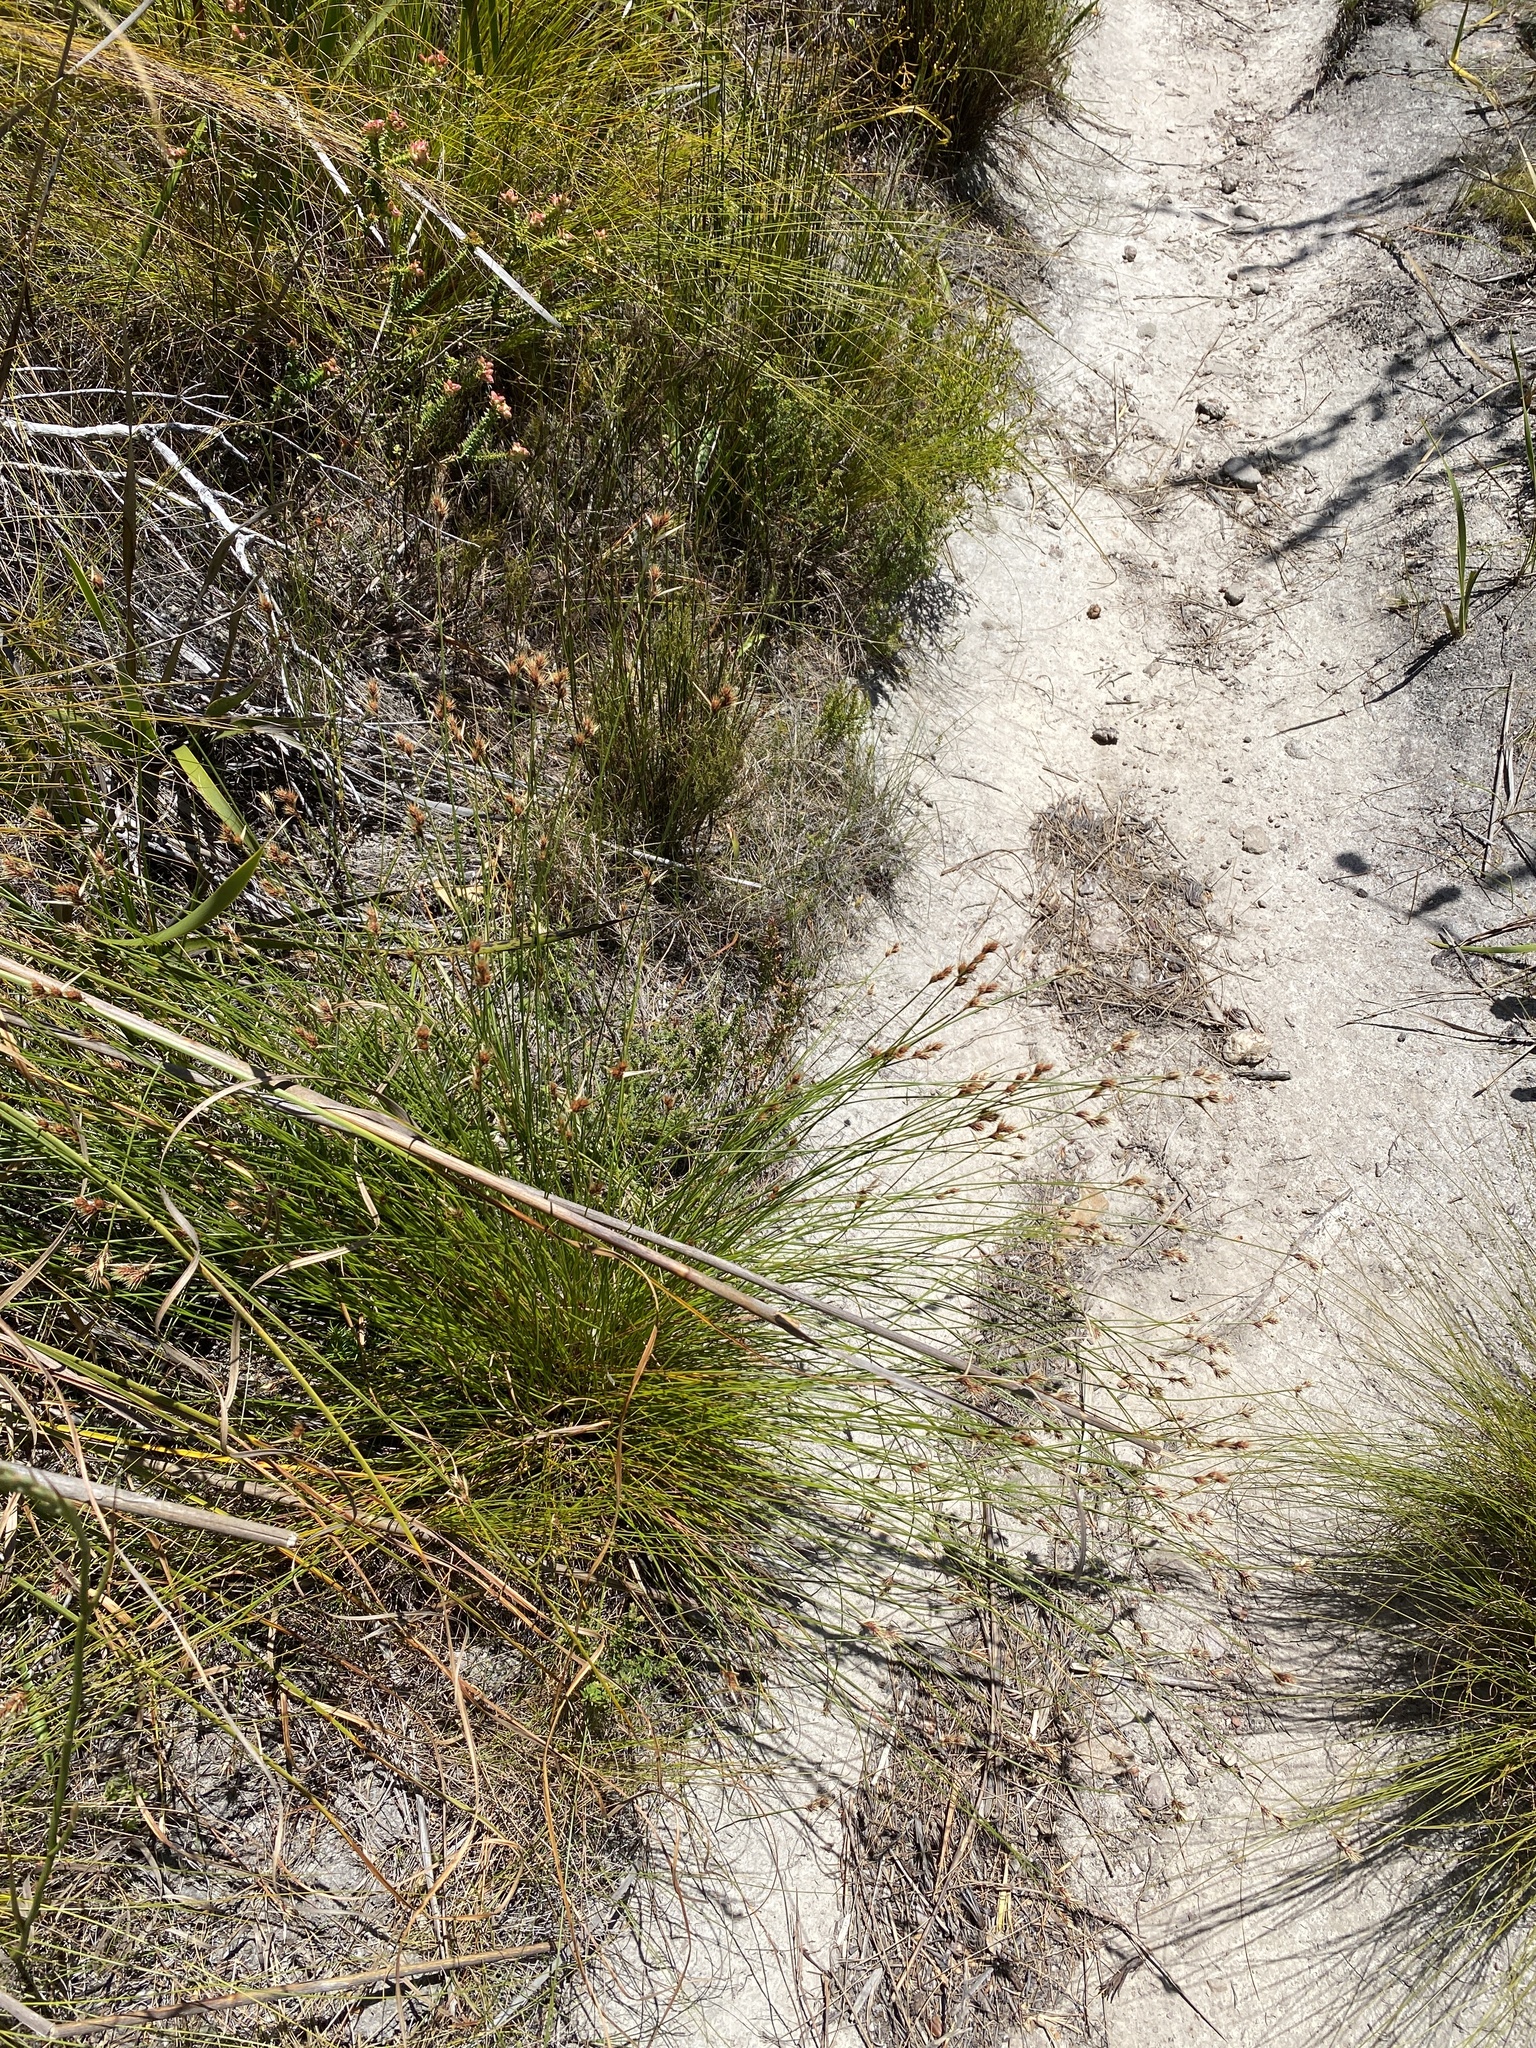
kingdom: Plantae
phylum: Tracheophyta
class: Liliopsida
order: Poales
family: Restionaceae
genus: Hypodiscus
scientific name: Hypodiscus aristatus
